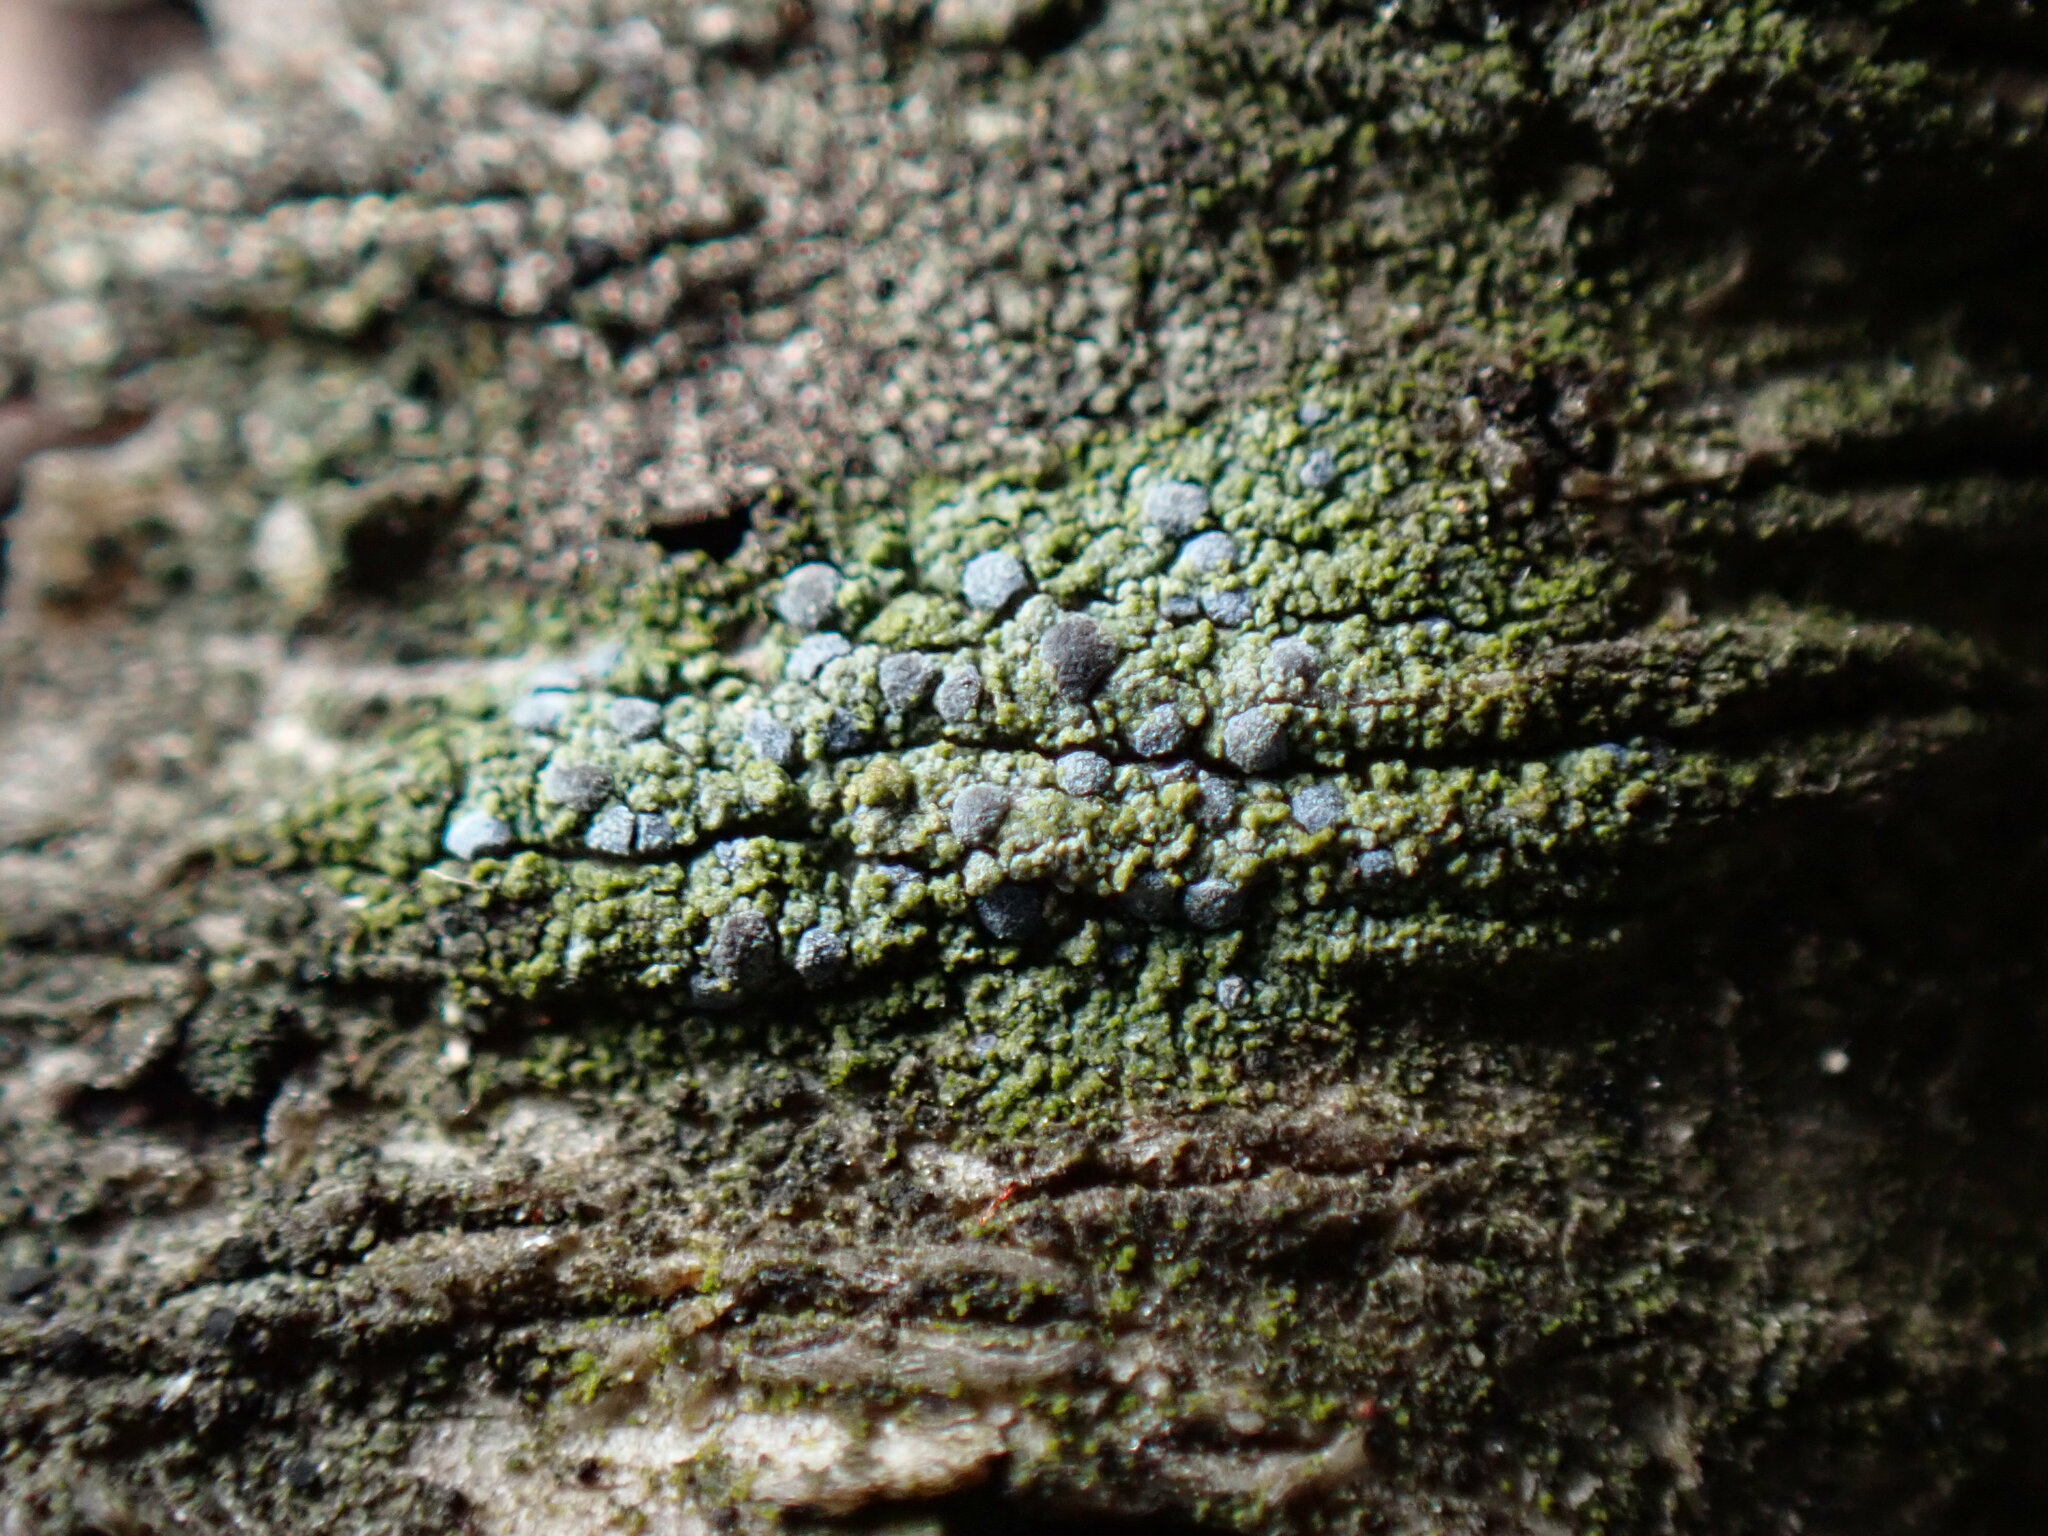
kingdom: Fungi
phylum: Ascomycota
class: Arthoniomycetes
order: Arthoniales
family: Chrysotrichaceae
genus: Chrysothrix
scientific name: Chrysothrix caesia
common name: Frosted comma lichen
